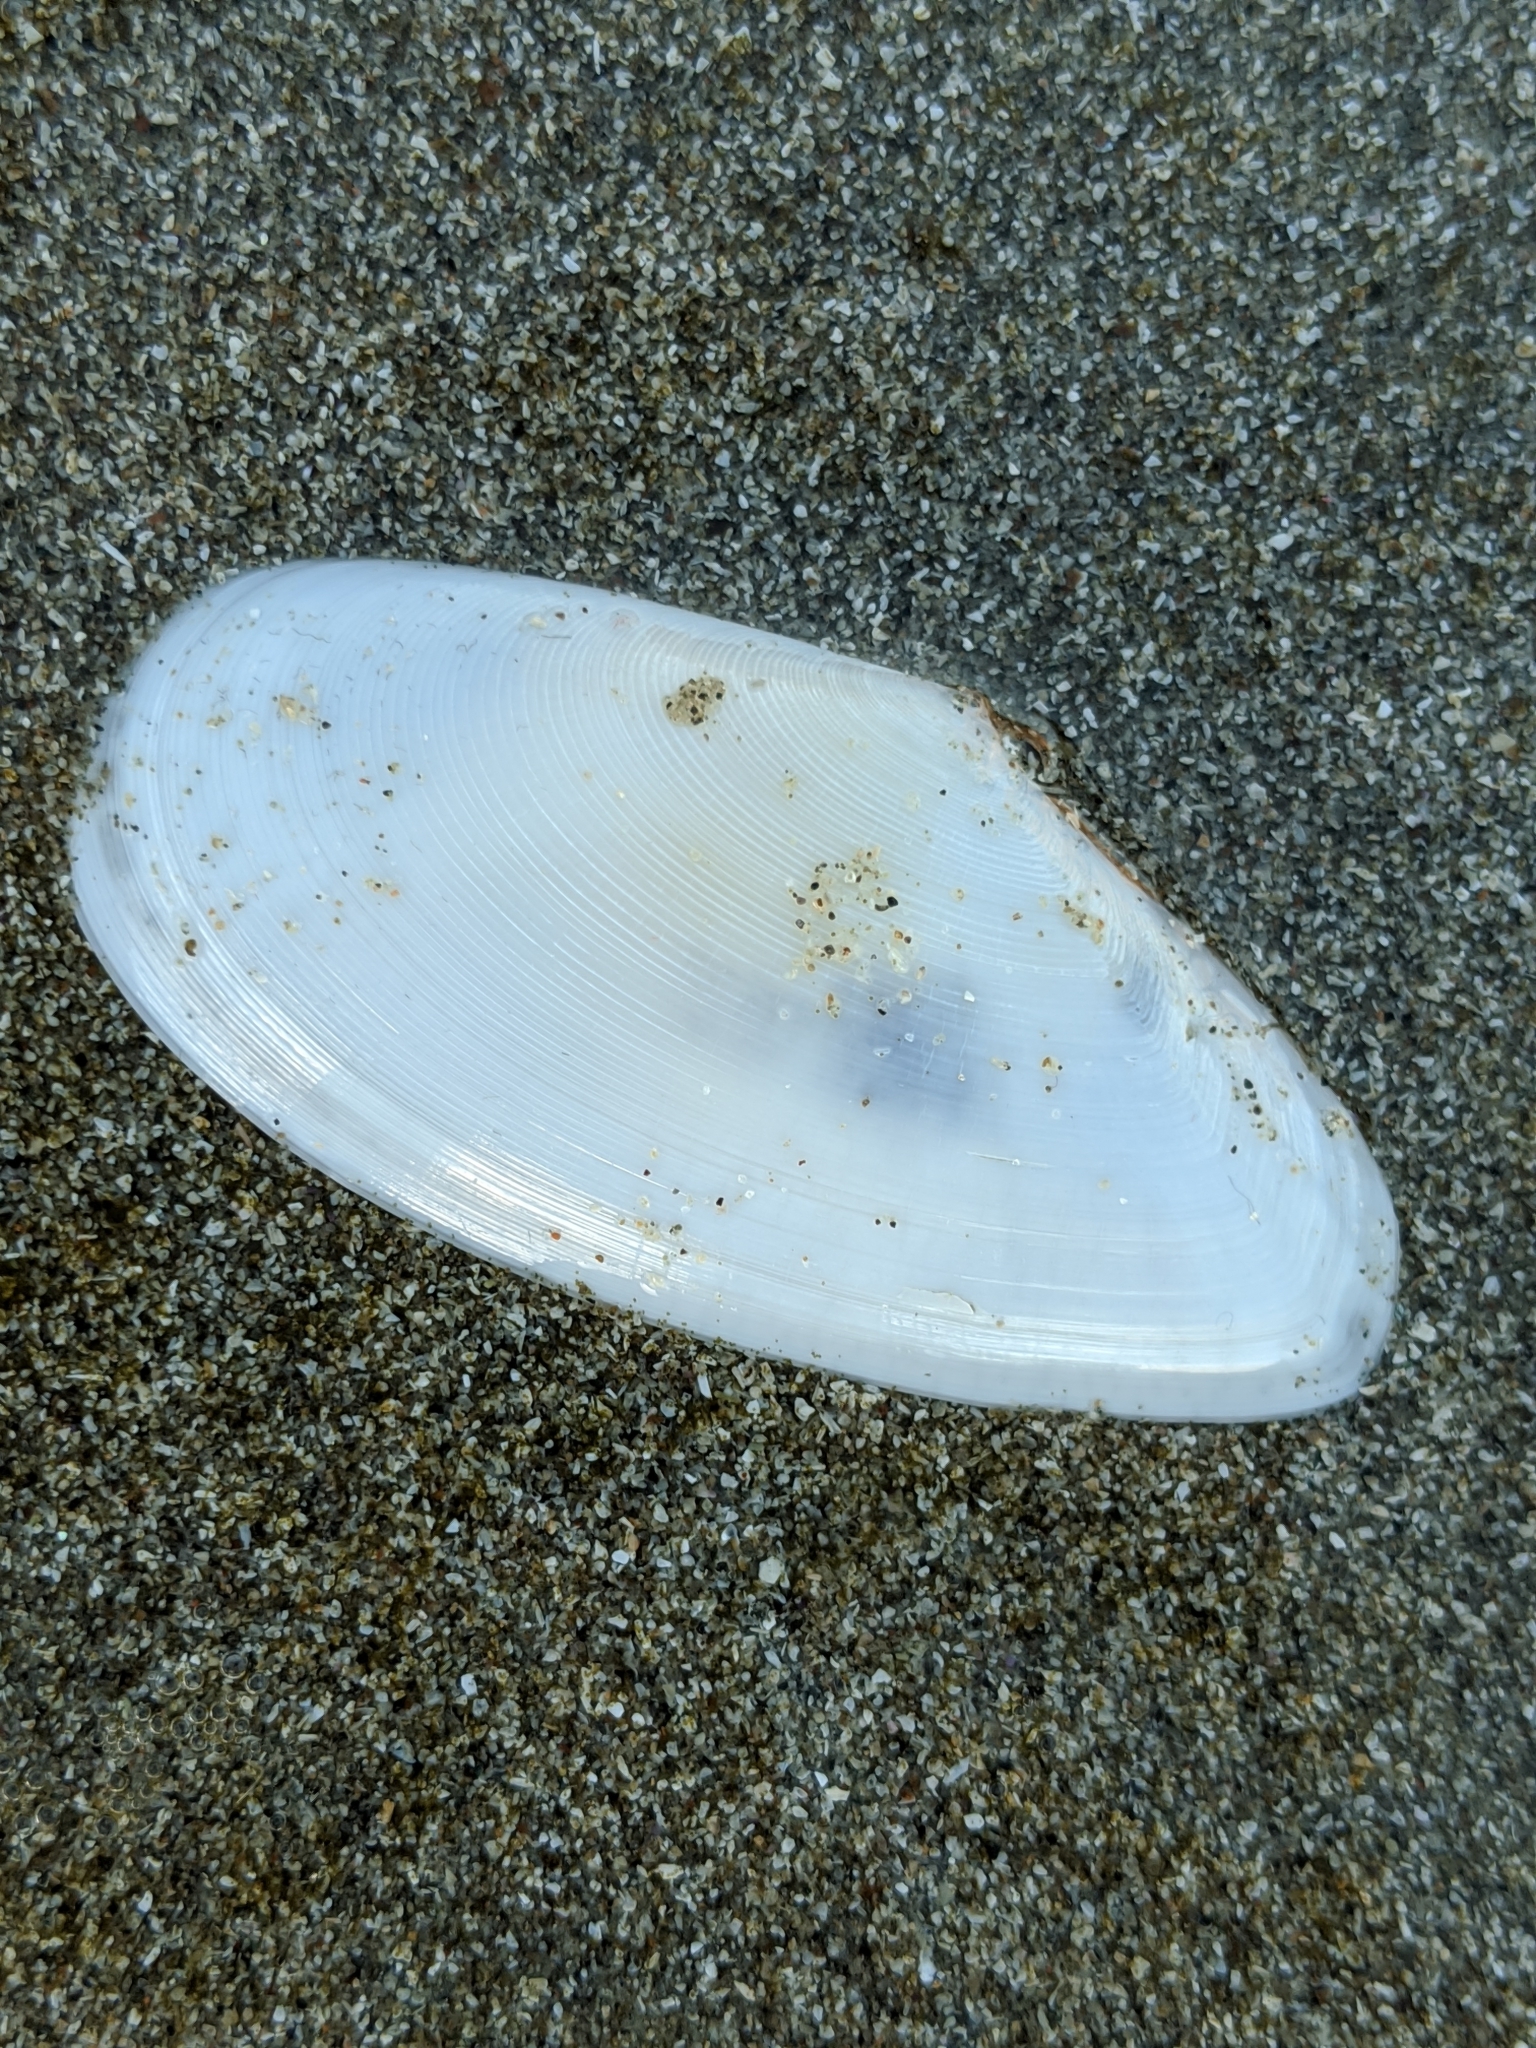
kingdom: Animalia
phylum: Mollusca
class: Bivalvia
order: Cardiida
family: Tellinidae
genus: Megangulus
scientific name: Megangulus bodegensis
